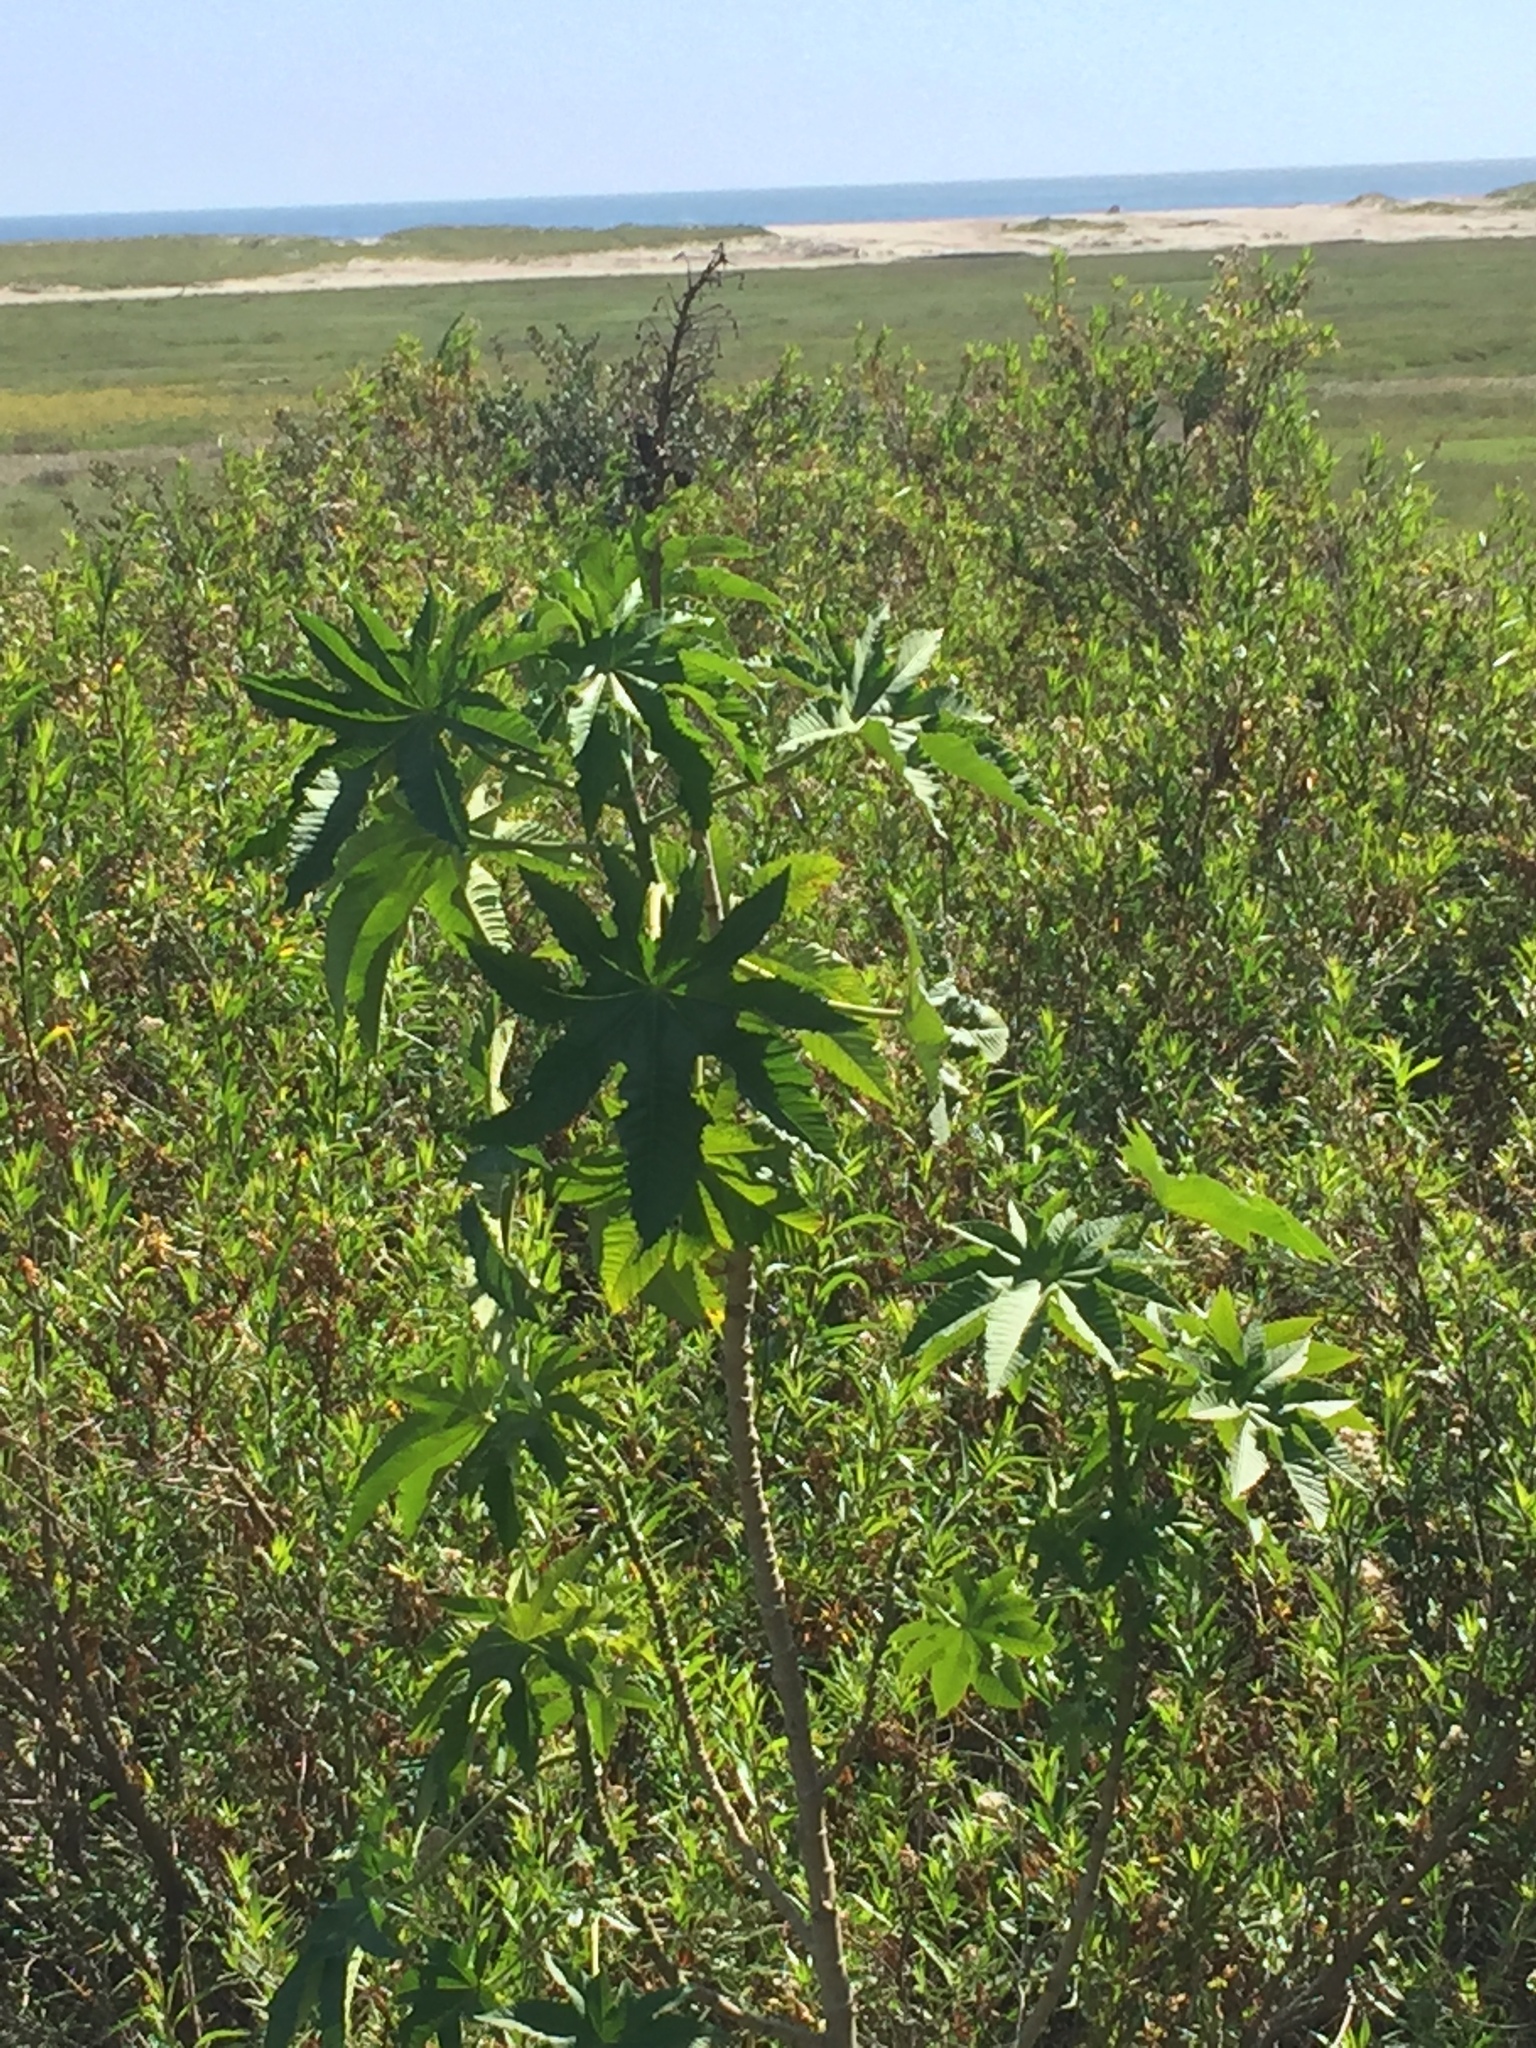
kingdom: Plantae
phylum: Tracheophyta
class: Magnoliopsida
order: Malpighiales
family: Euphorbiaceae
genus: Ricinus
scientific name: Ricinus communis
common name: Castor-oil-plant
